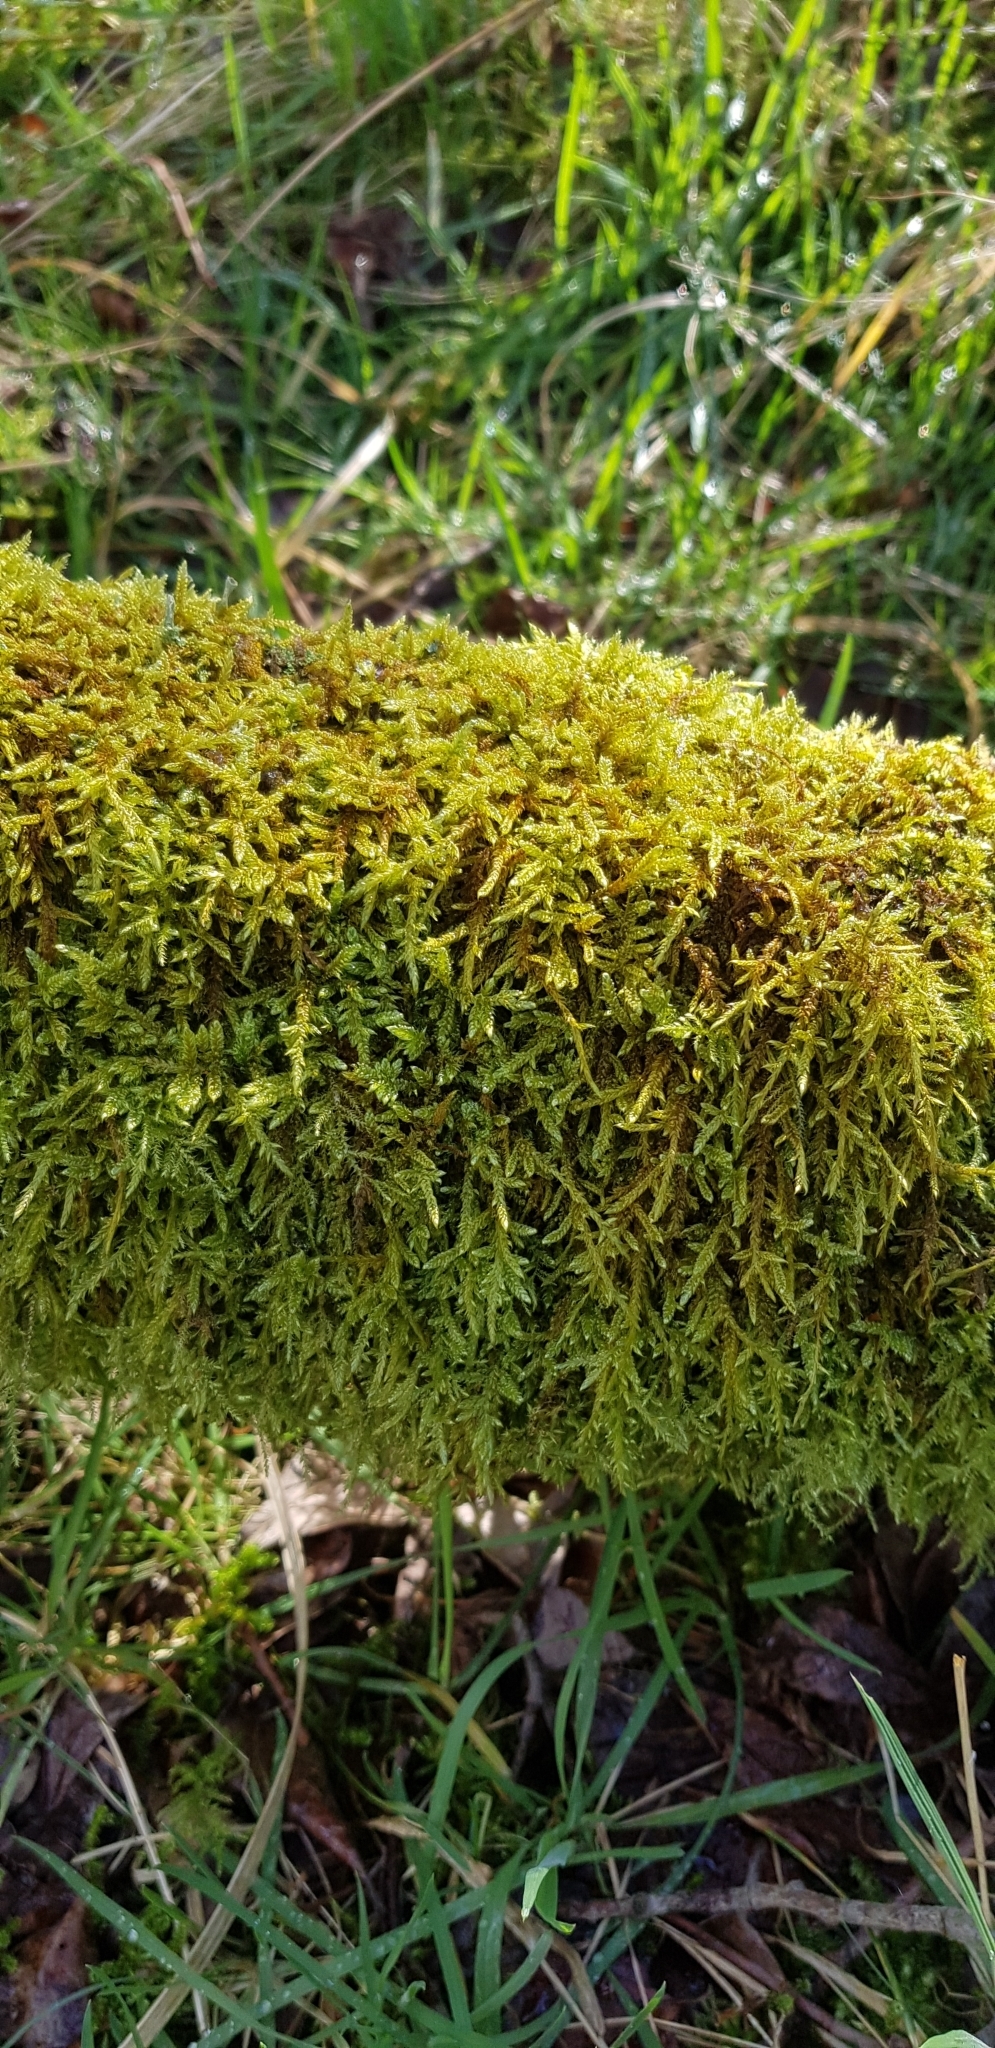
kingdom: Plantae
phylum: Bryophyta
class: Bryopsida
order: Hypnales
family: Hypnaceae
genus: Hypnum
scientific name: Hypnum cupressiforme
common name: Cypress-leaved plait-moss
